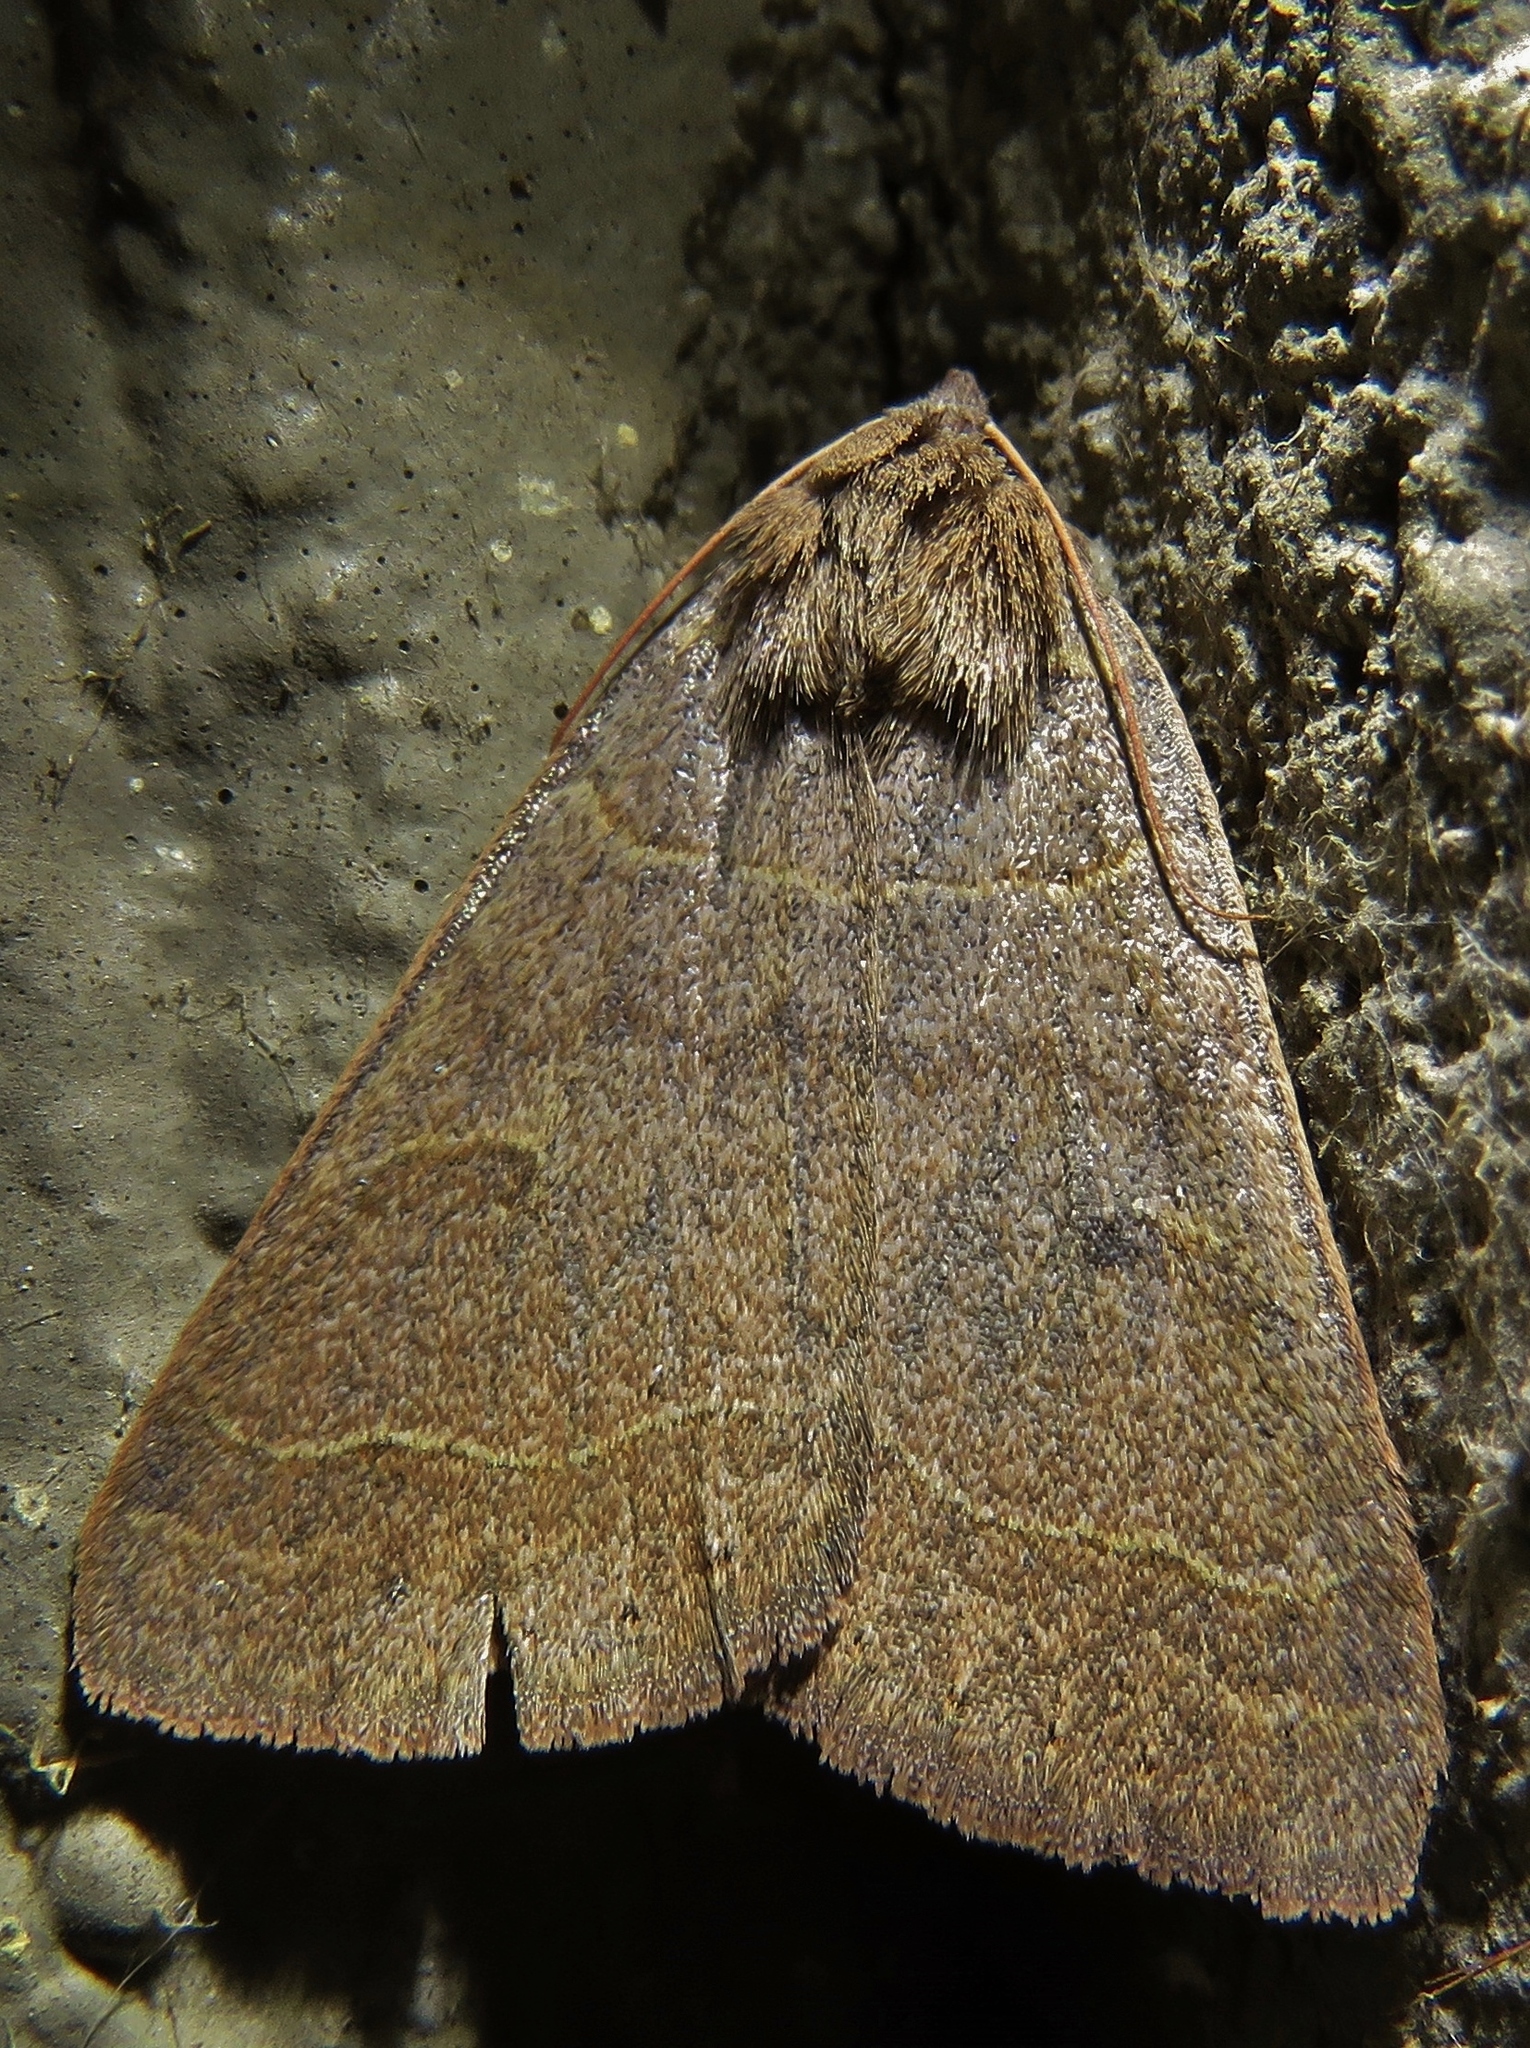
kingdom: Animalia
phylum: Arthropoda
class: Insecta
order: Lepidoptera
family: Erebidae
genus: Phoberia
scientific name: Phoberia atomaris
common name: Common oak moth
